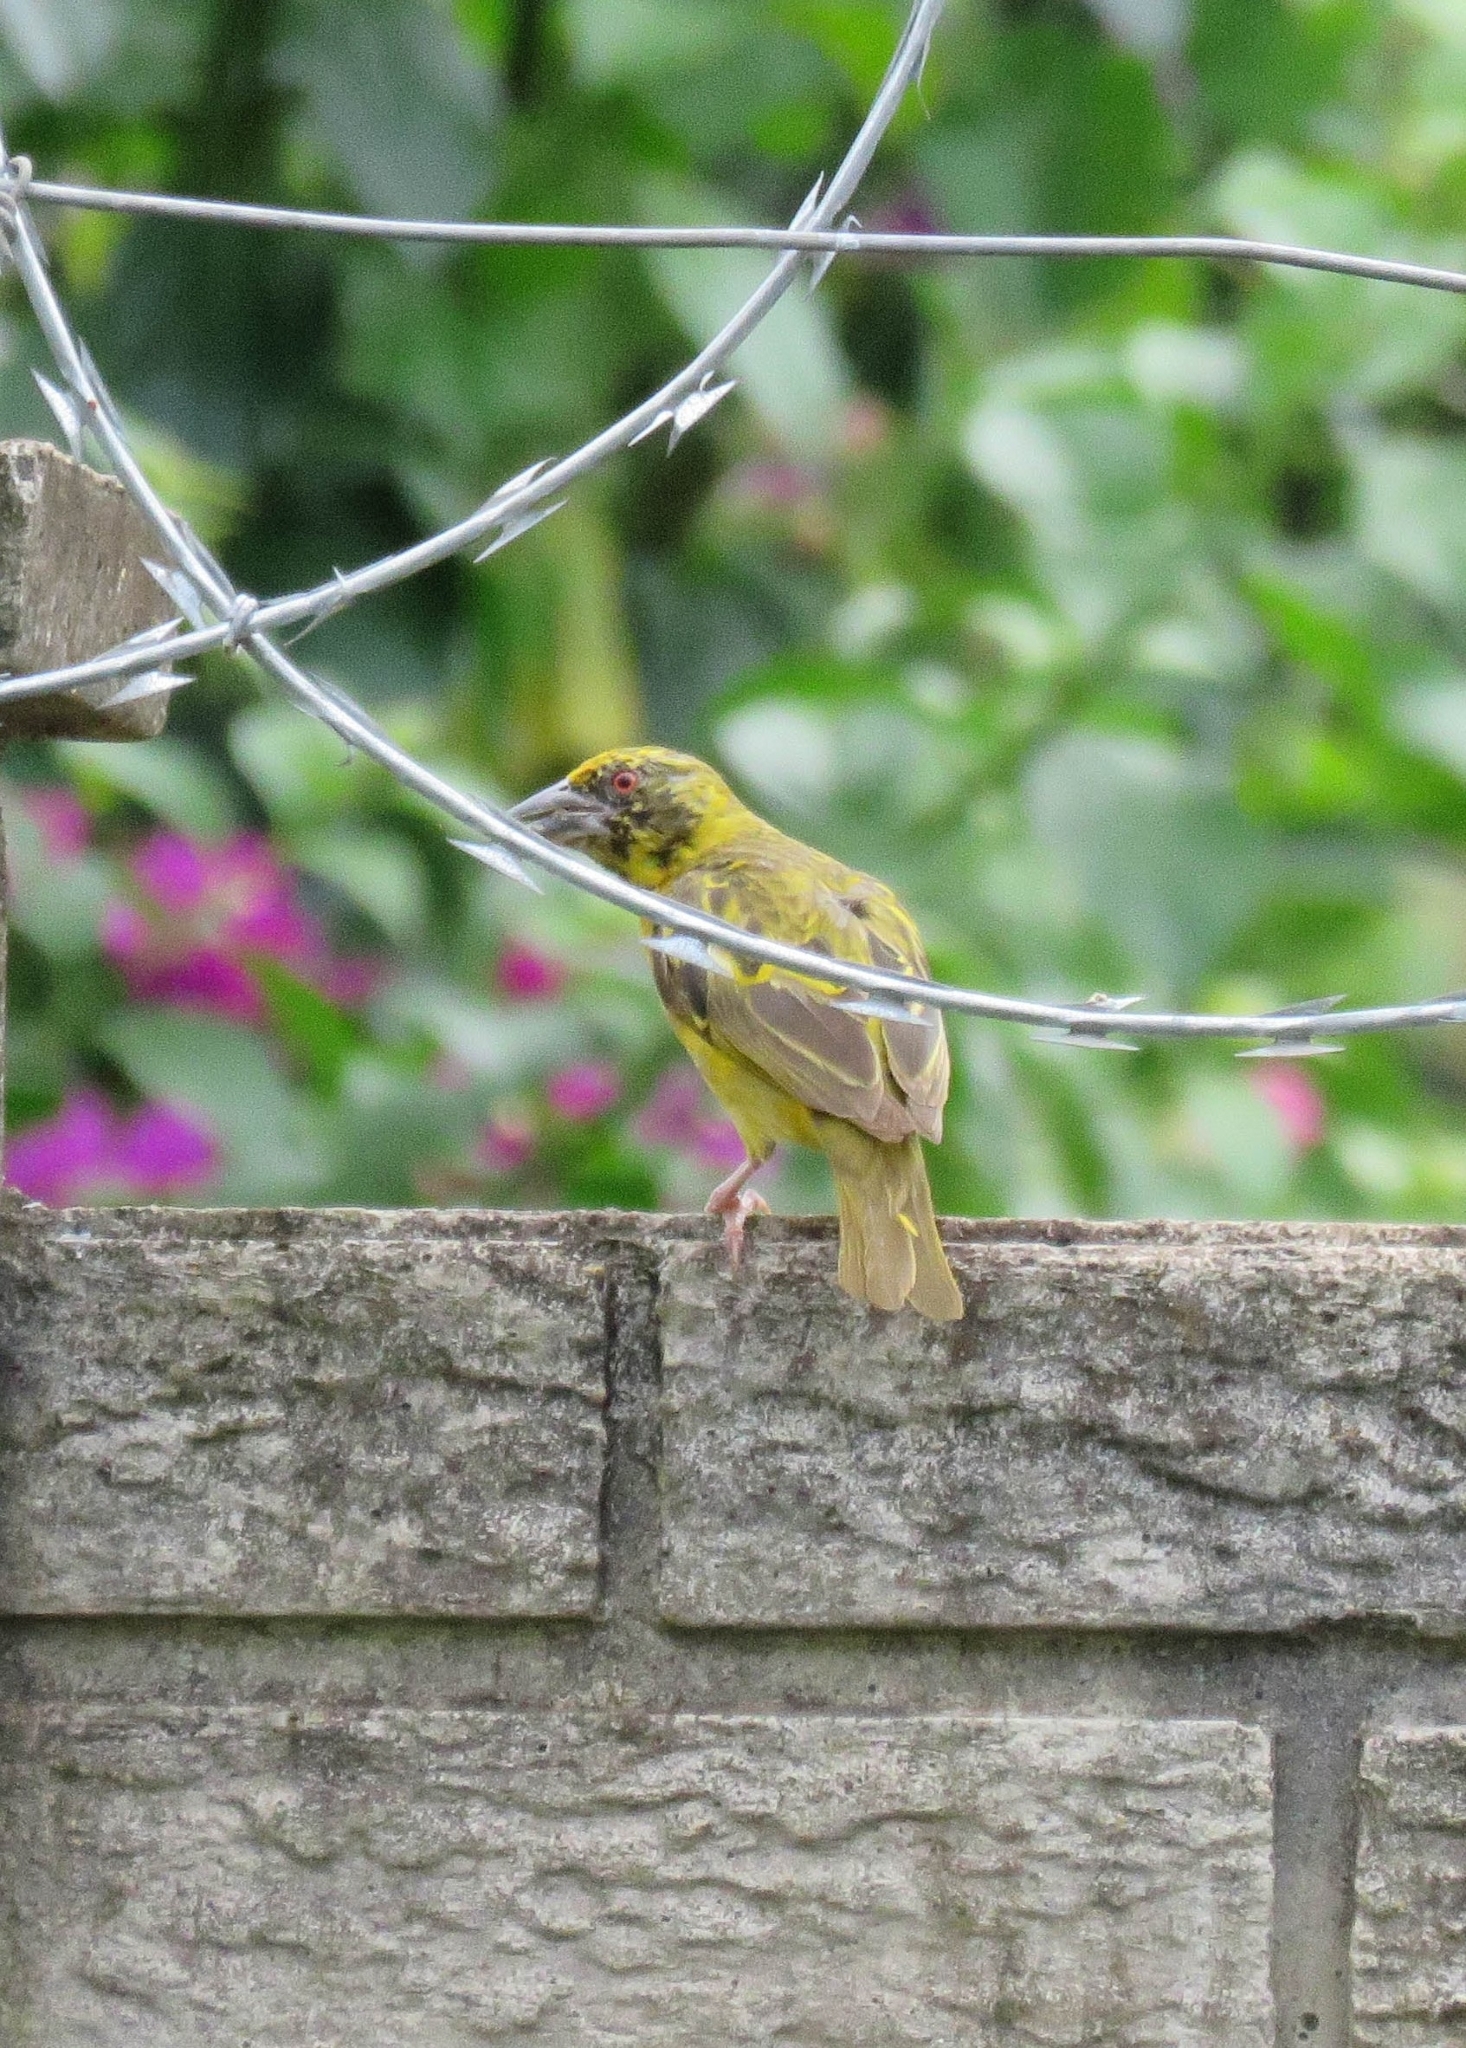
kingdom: Animalia
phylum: Chordata
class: Aves
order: Passeriformes
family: Ploceidae
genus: Ploceus
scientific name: Ploceus cucullatus
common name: Village weaver
